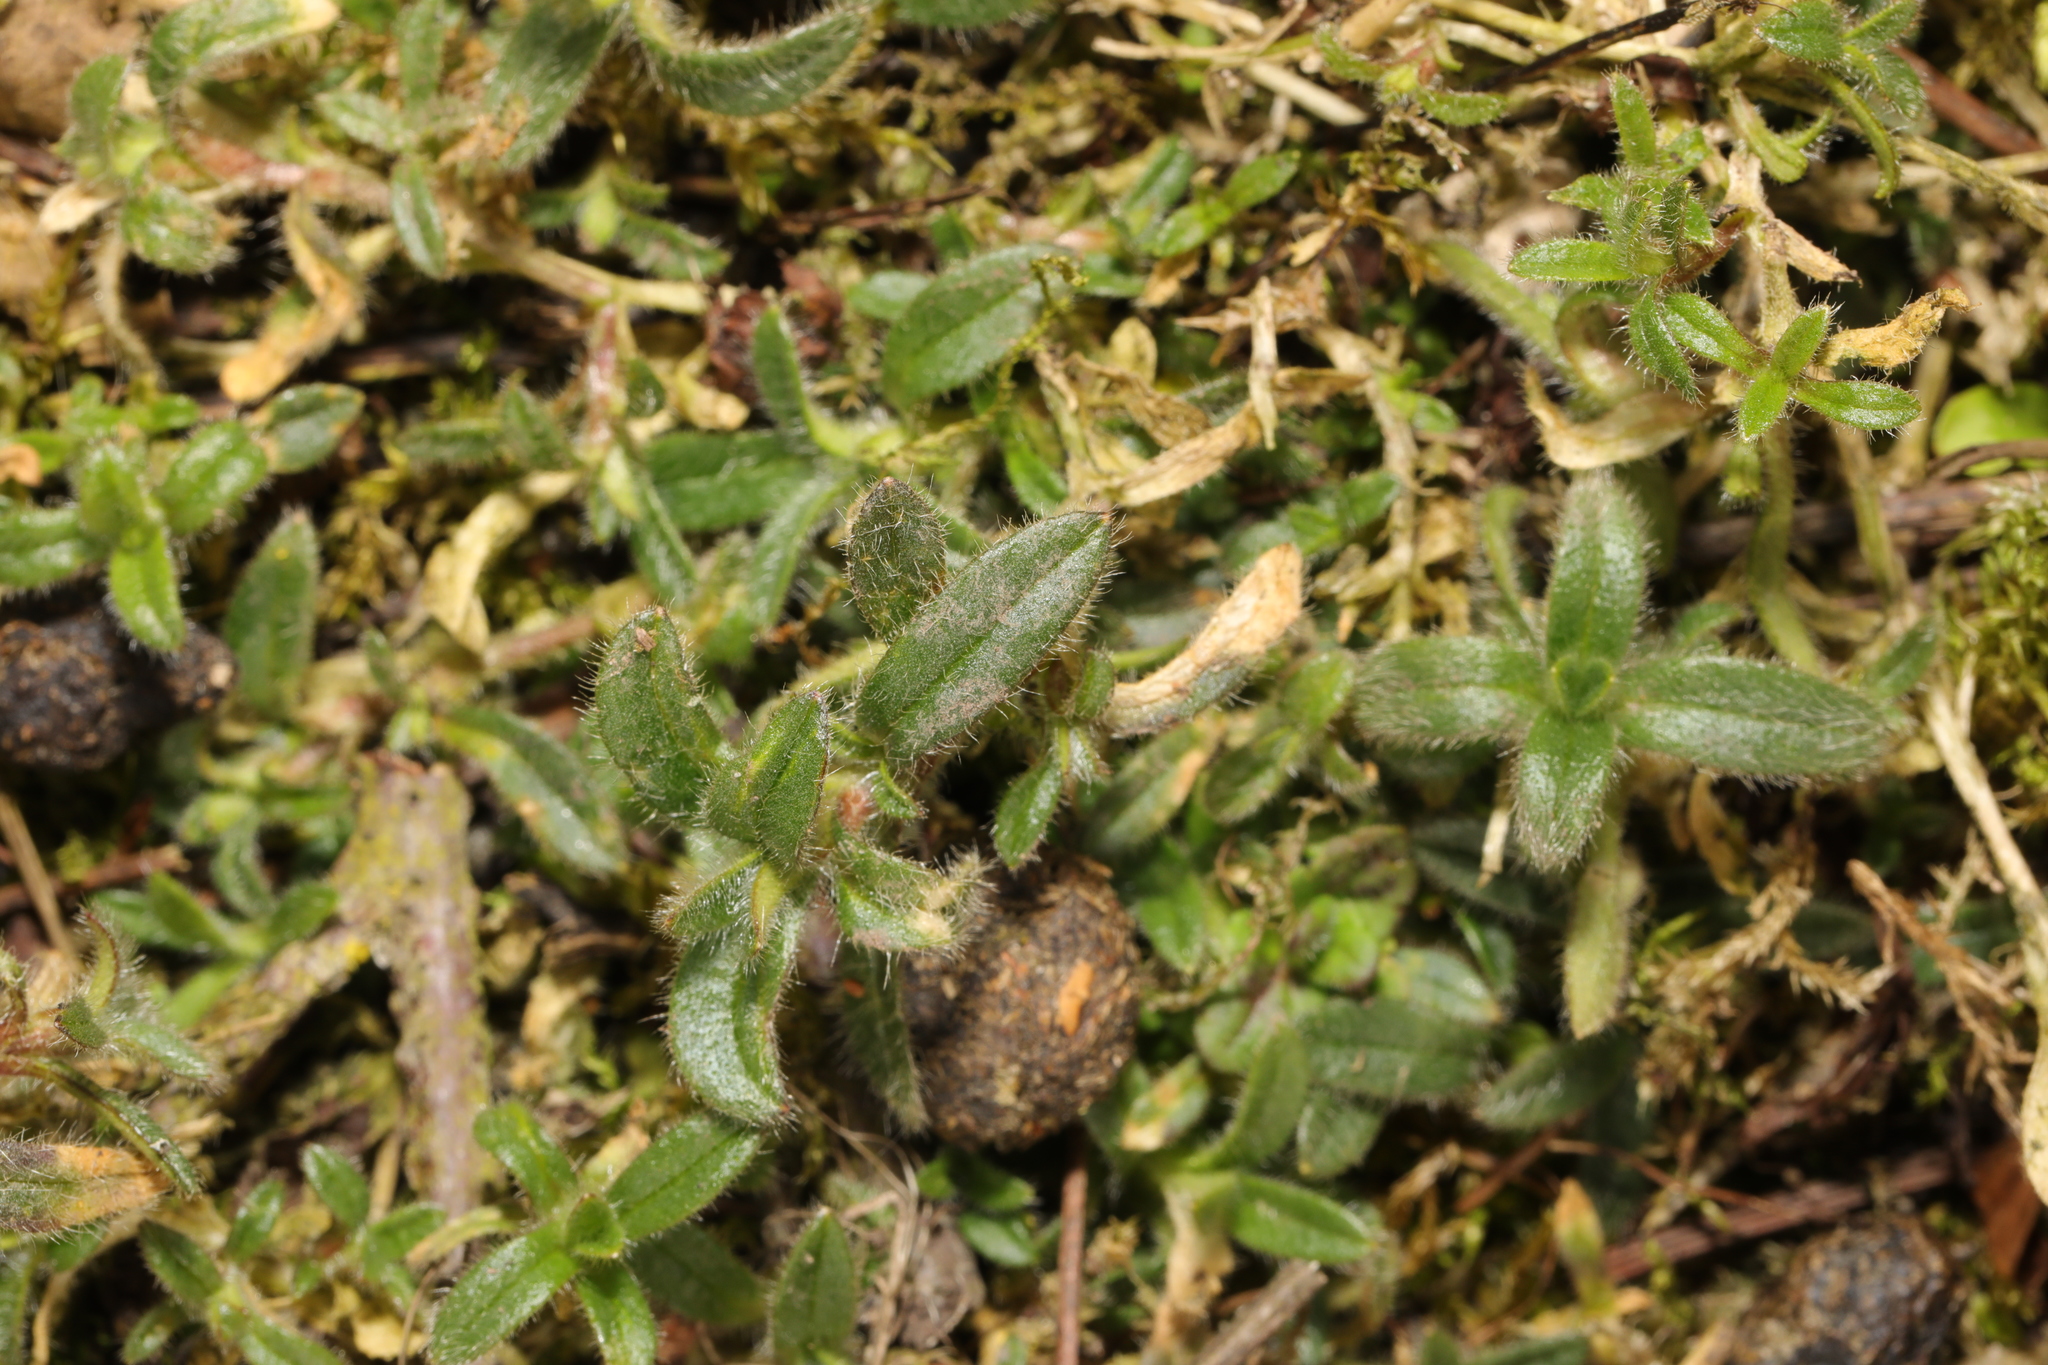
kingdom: Plantae
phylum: Tracheophyta
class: Magnoliopsida
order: Caryophyllales
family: Caryophyllaceae
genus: Cerastium
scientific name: Cerastium fontanum
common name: Common mouse-ear
